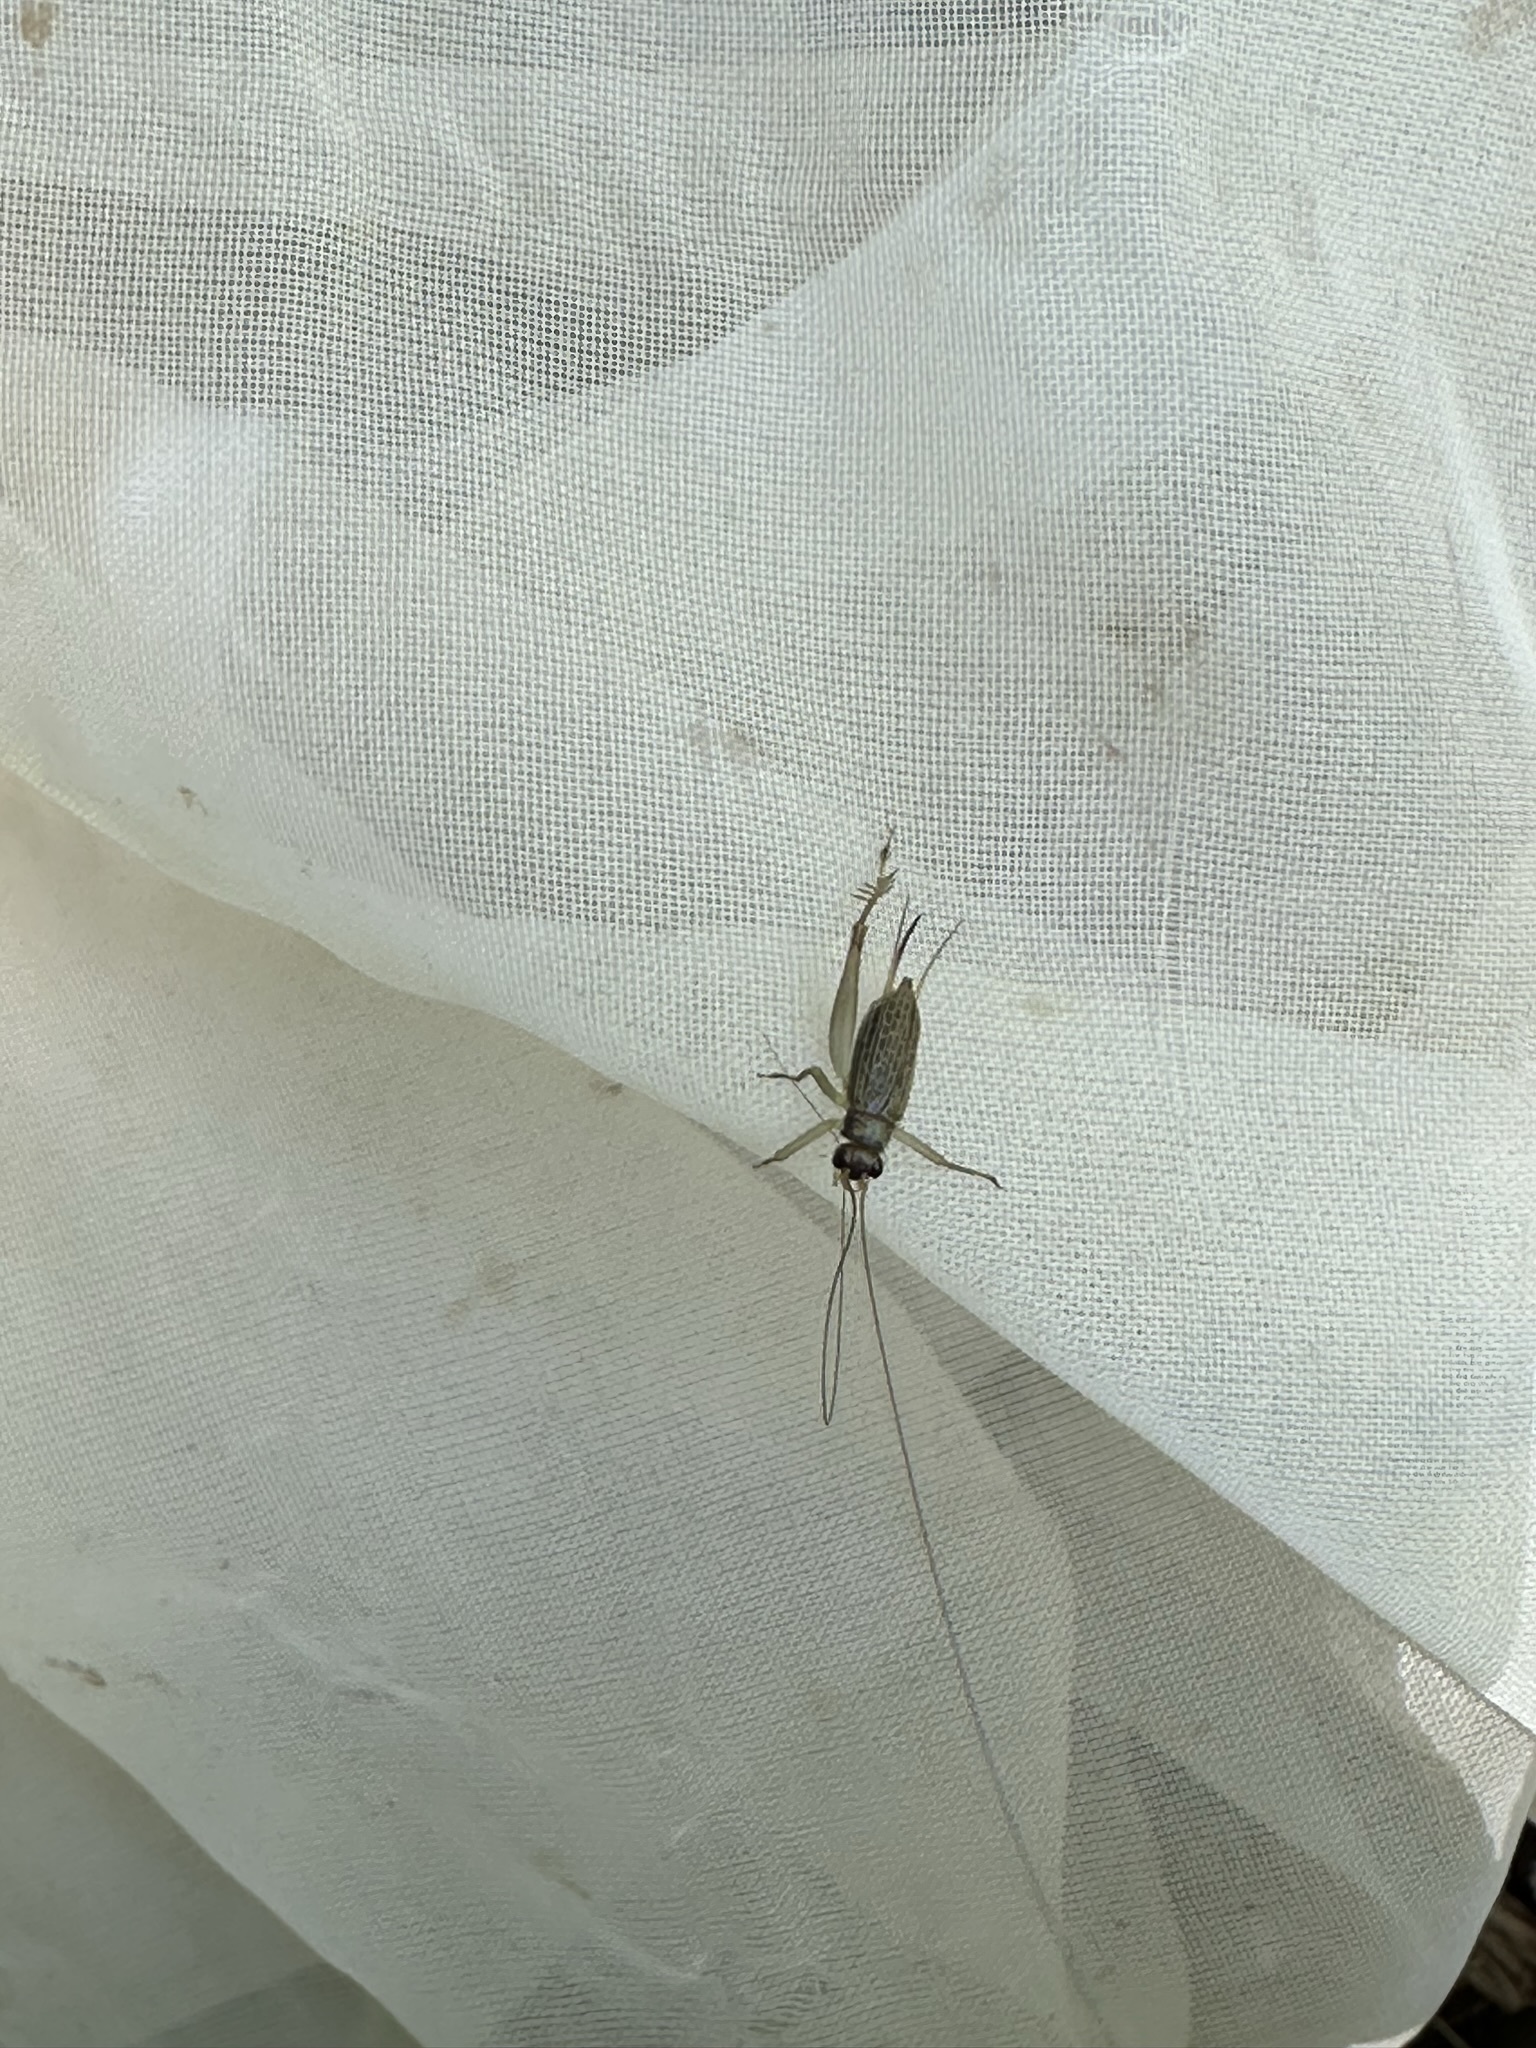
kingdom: Animalia
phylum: Arthropoda
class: Insecta
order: Orthoptera
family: Trigonidiidae
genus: Amusurgus
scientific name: Amusurgus genji
